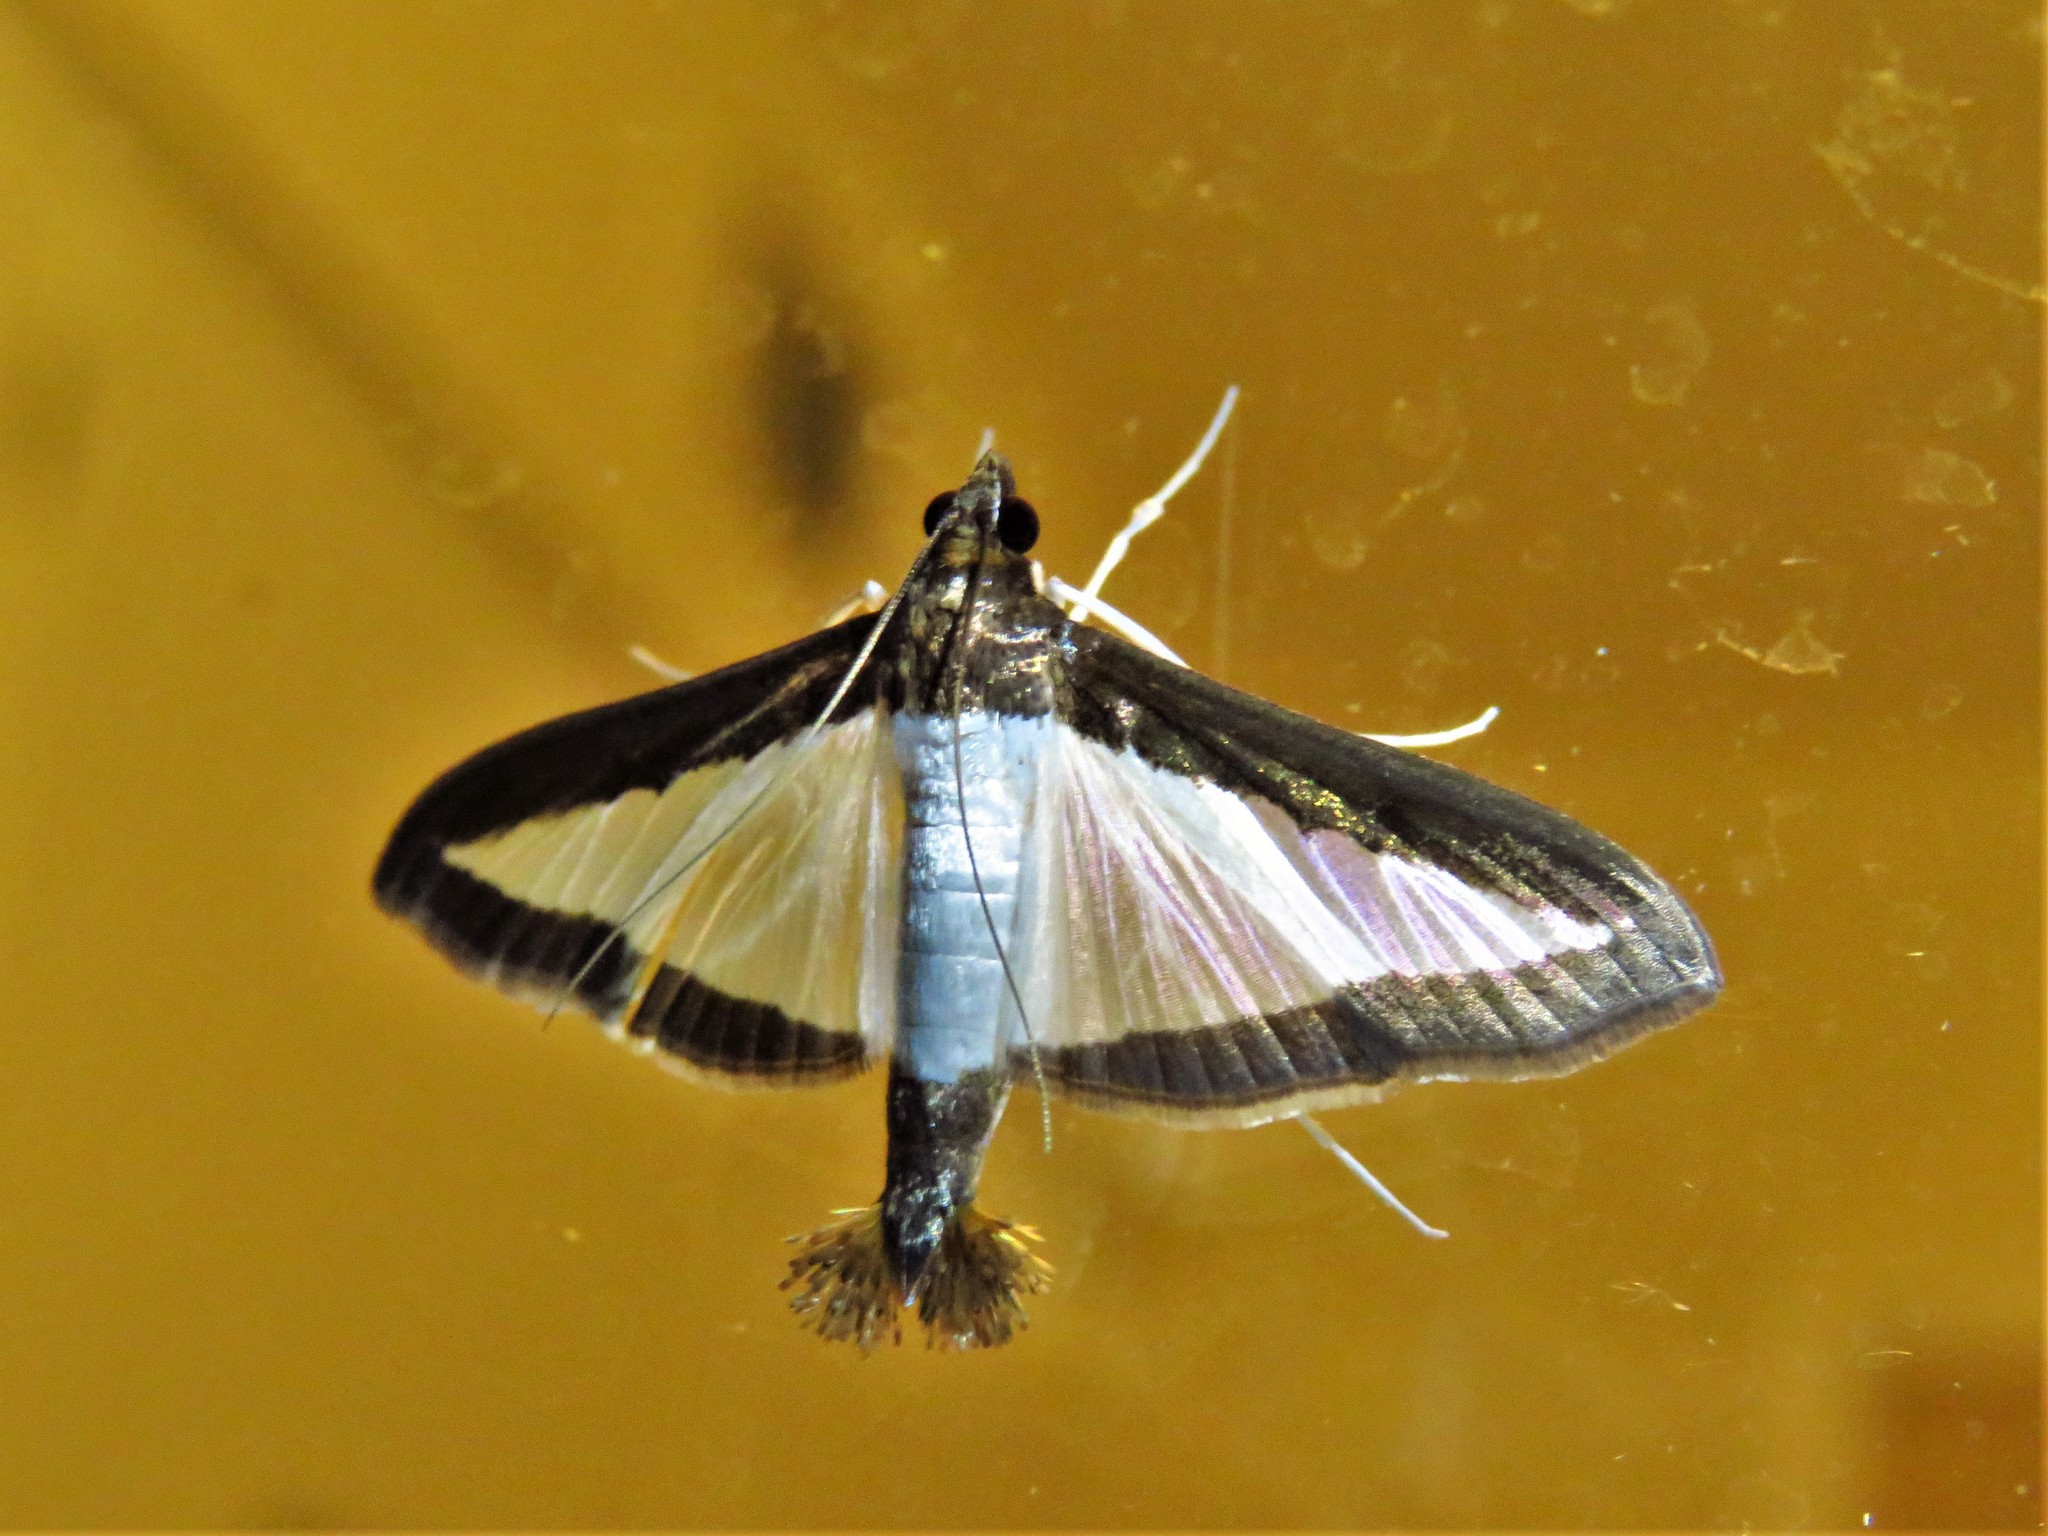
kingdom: Animalia
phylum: Arthropoda
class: Insecta
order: Lepidoptera
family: Crambidae
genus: Diaphania
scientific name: Diaphania hyalinata
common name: Melonworm
